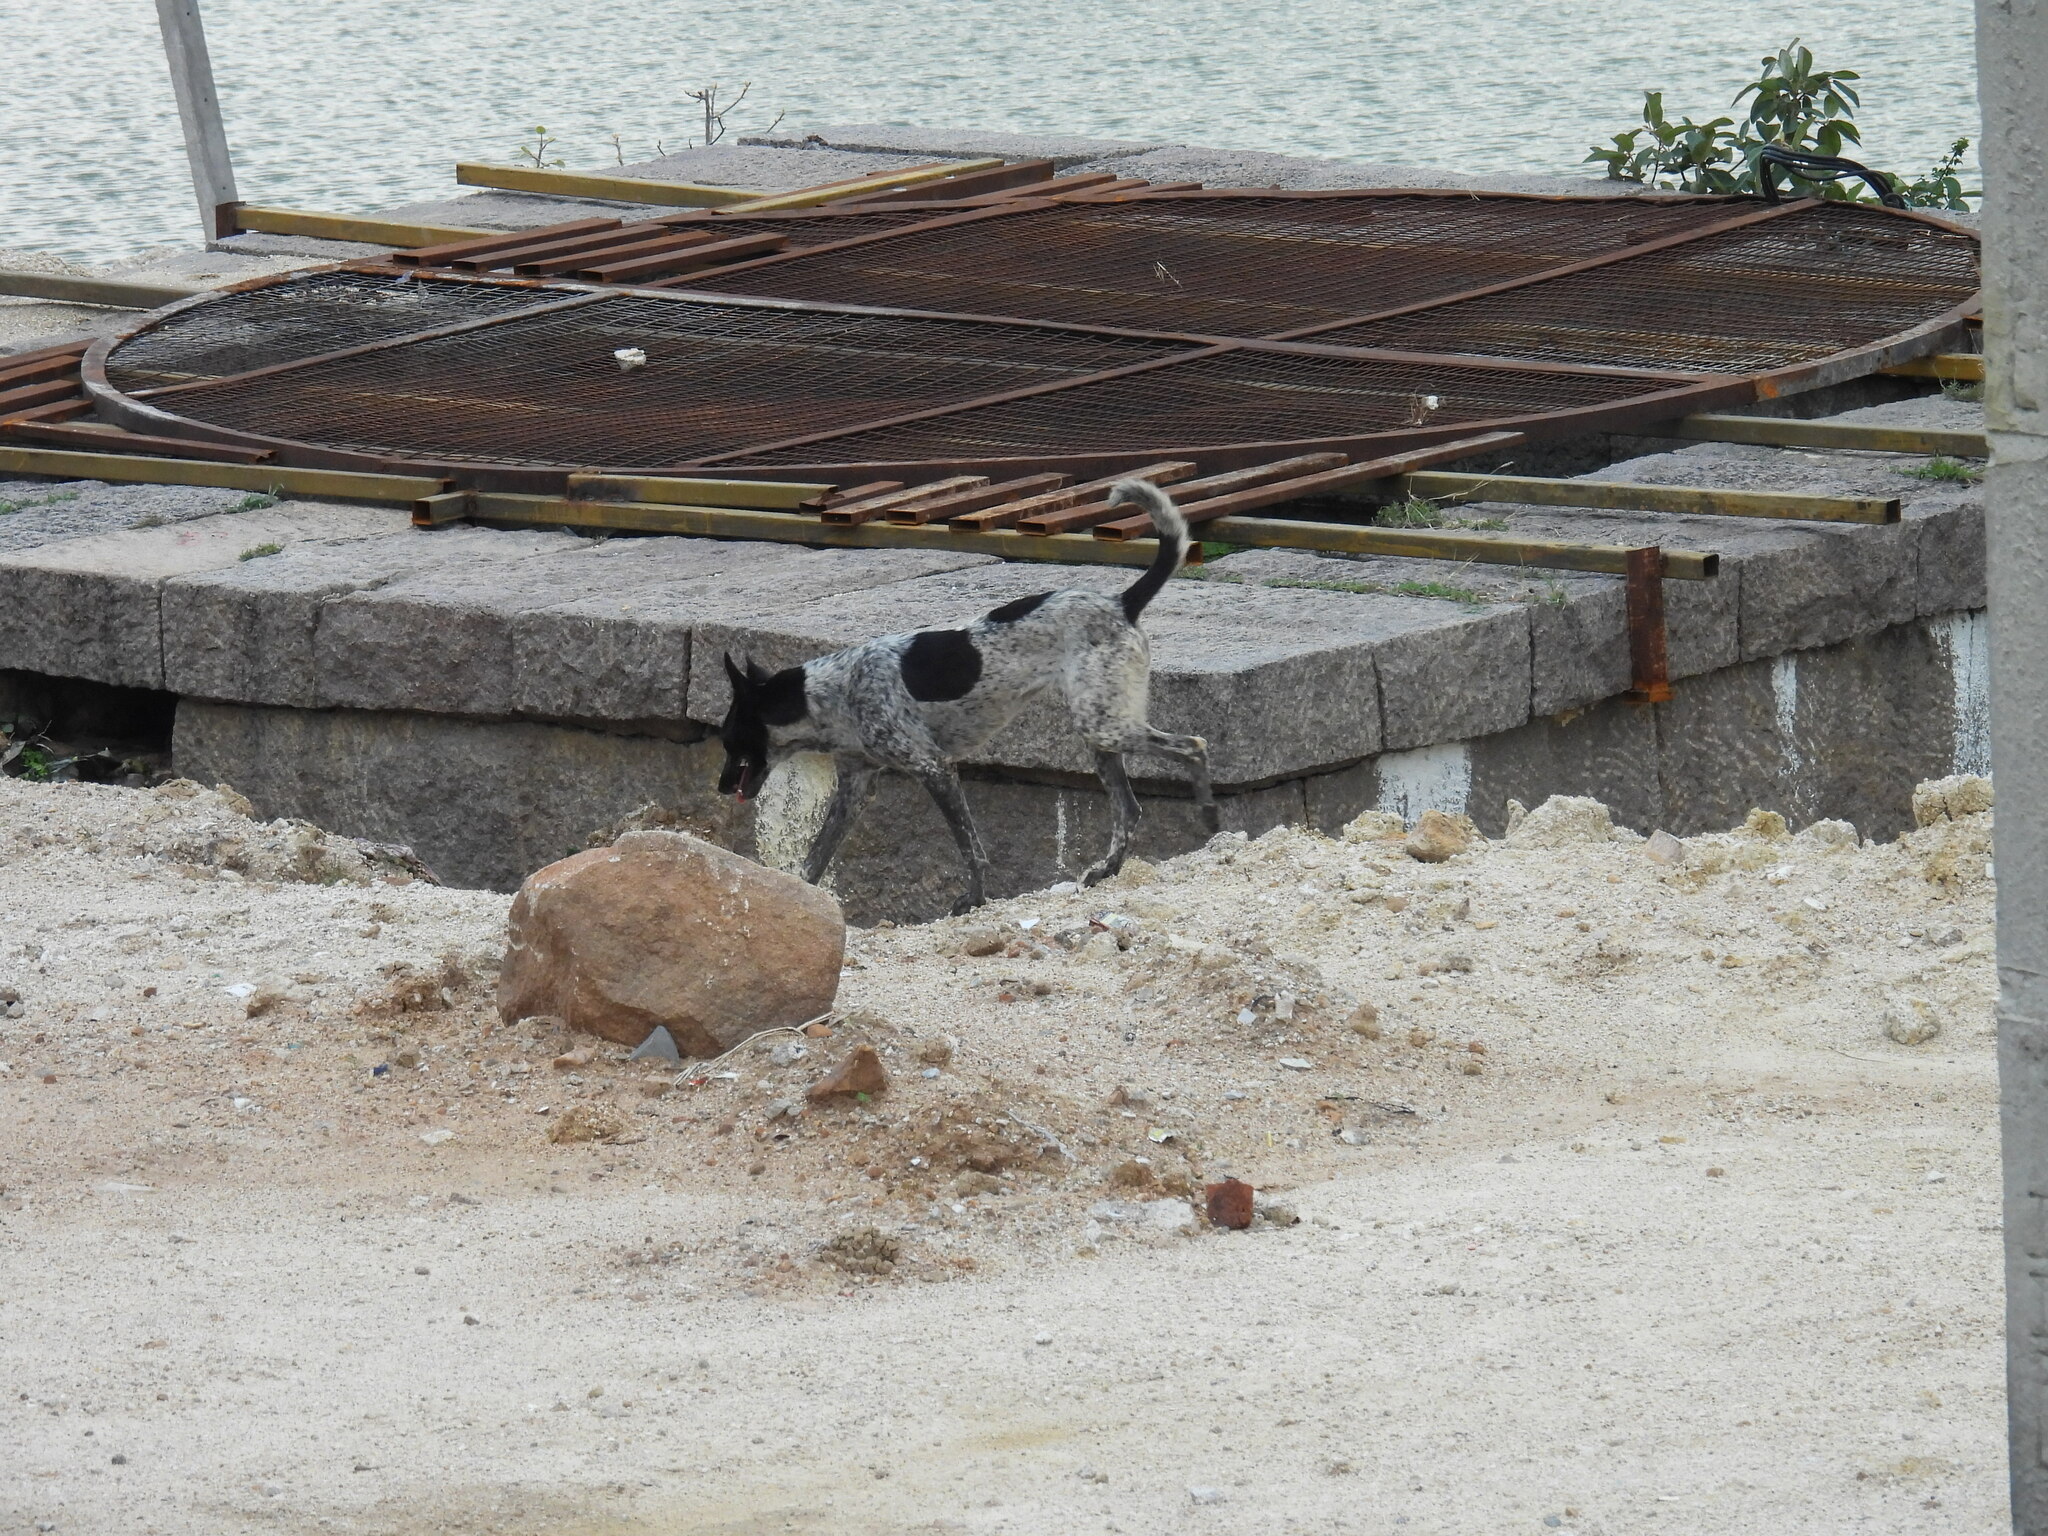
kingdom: Animalia
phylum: Chordata
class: Mammalia
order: Carnivora
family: Canidae
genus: Canis
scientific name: Canis lupus
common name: Gray wolf
